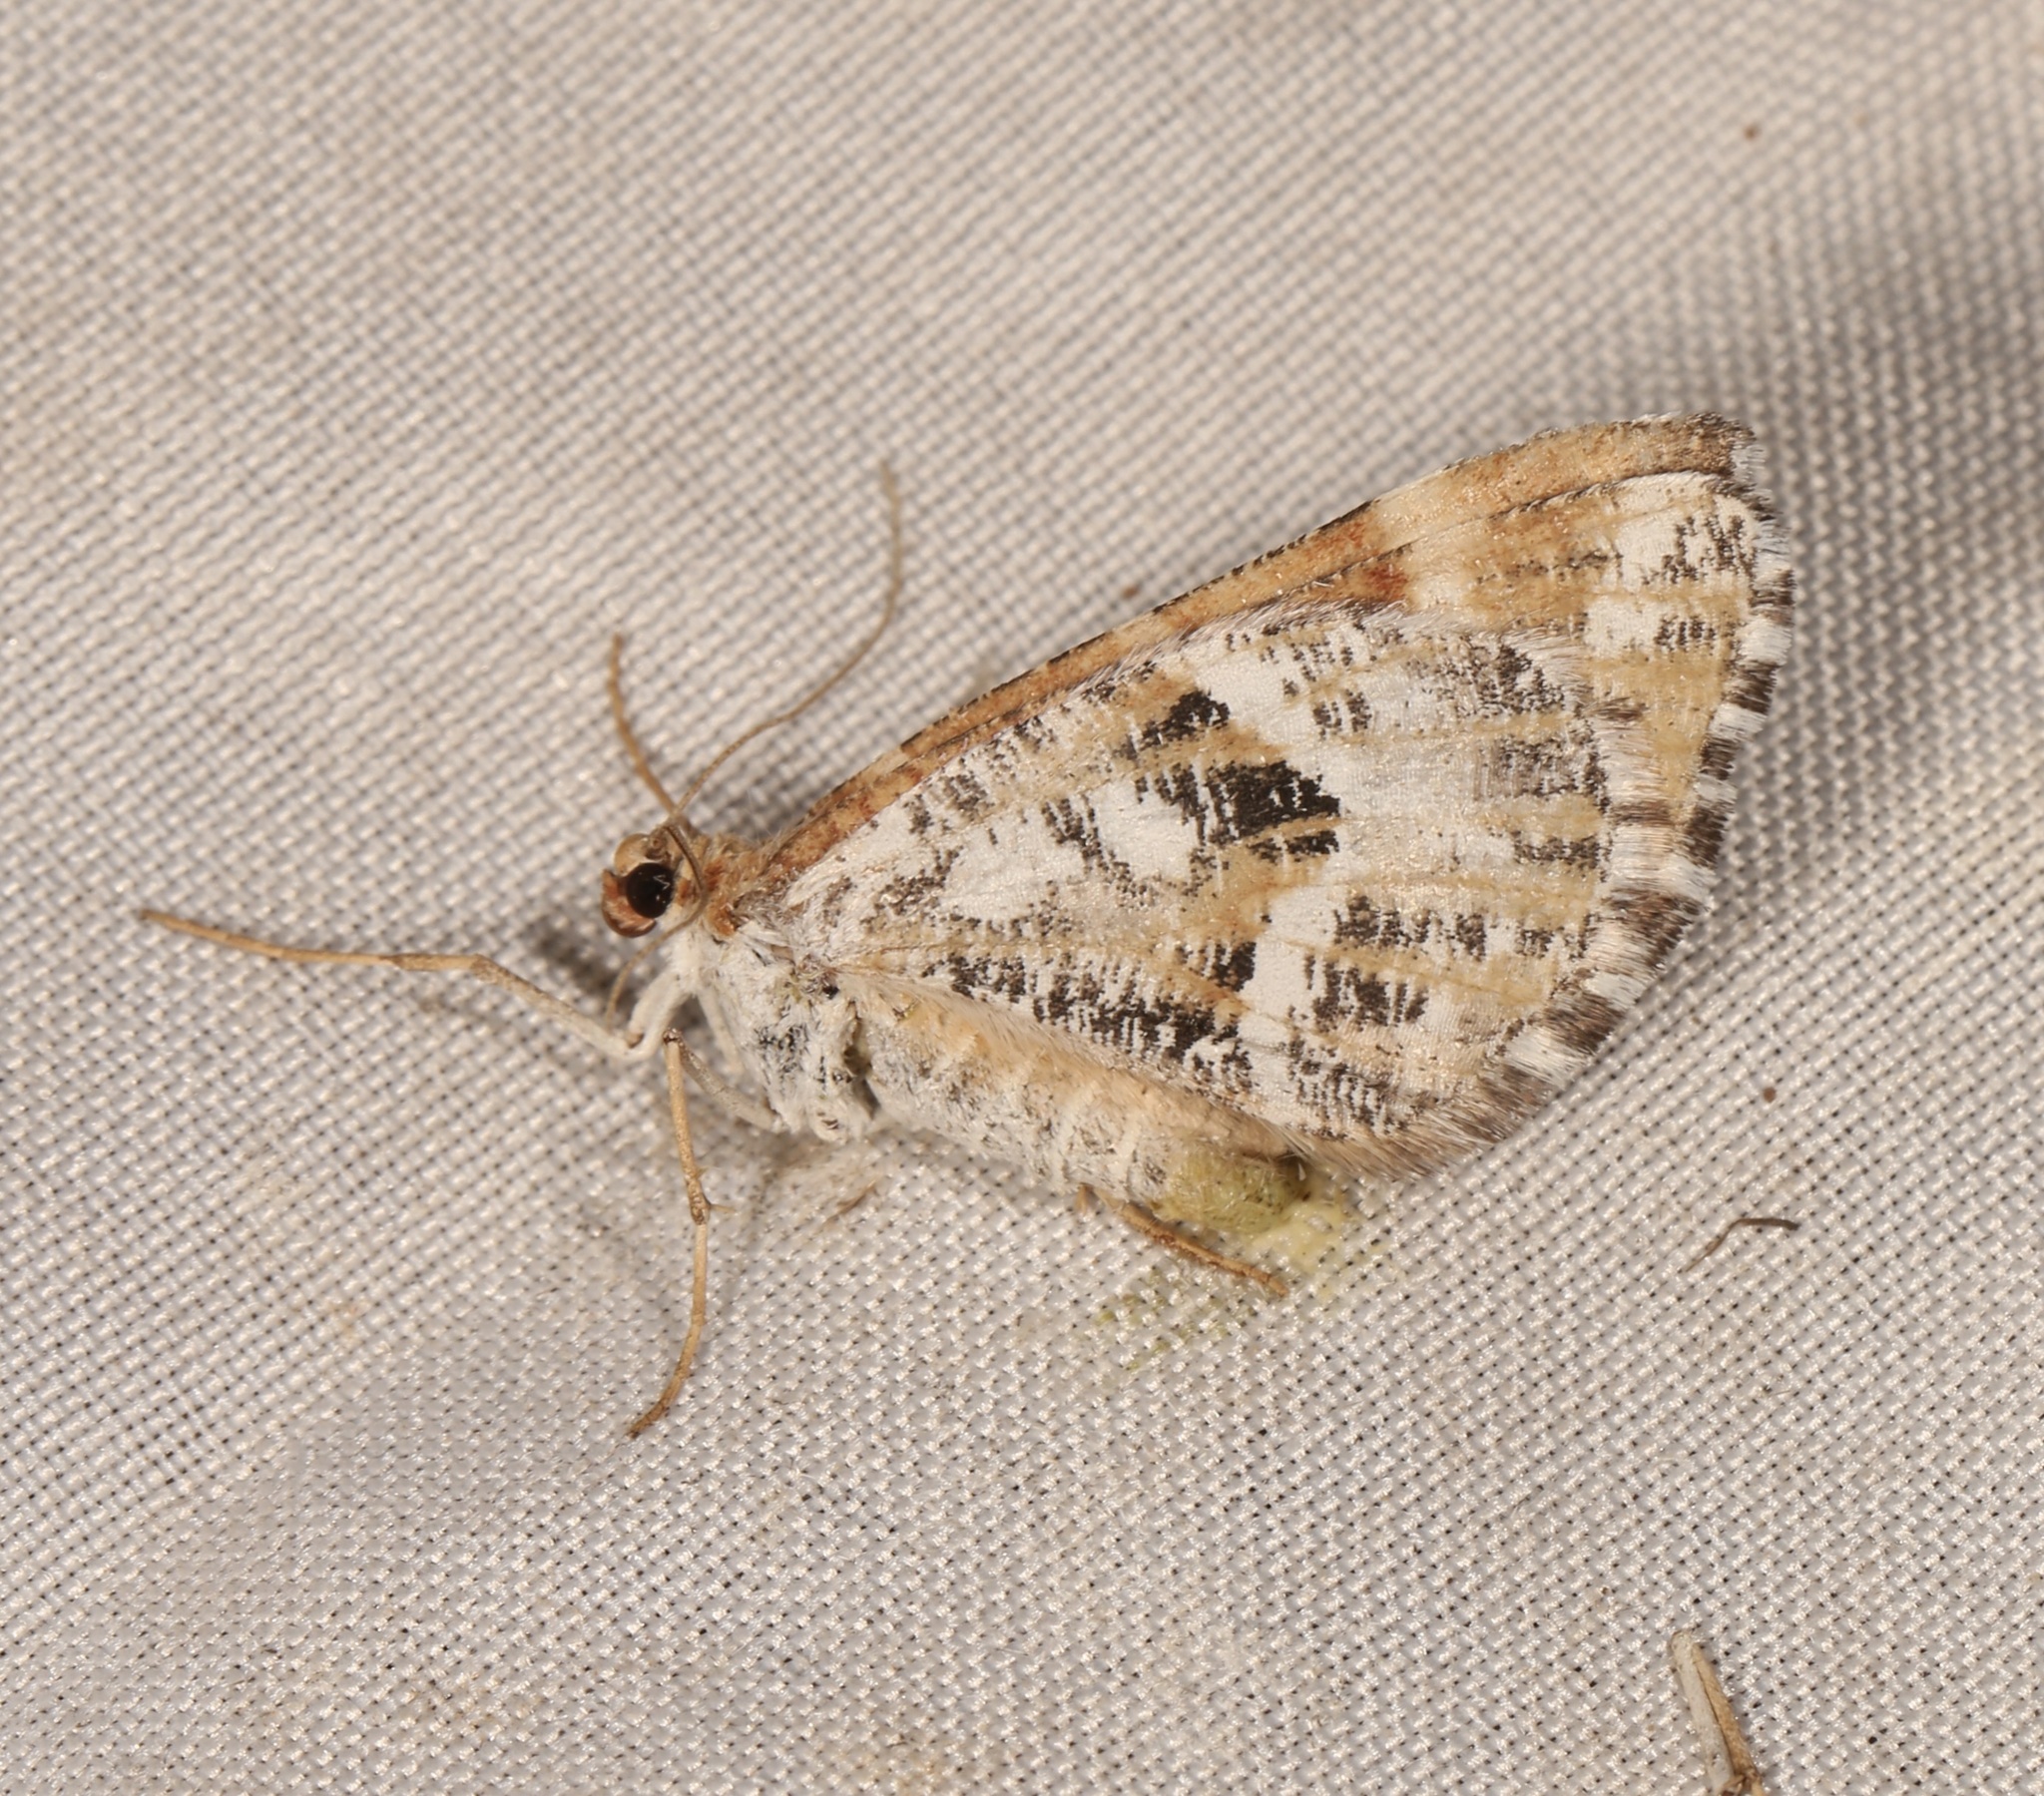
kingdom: Animalia
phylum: Arthropoda
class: Insecta
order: Lepidoptera
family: Geometridae
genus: Stamnodes
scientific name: Stamnodes marmorata
